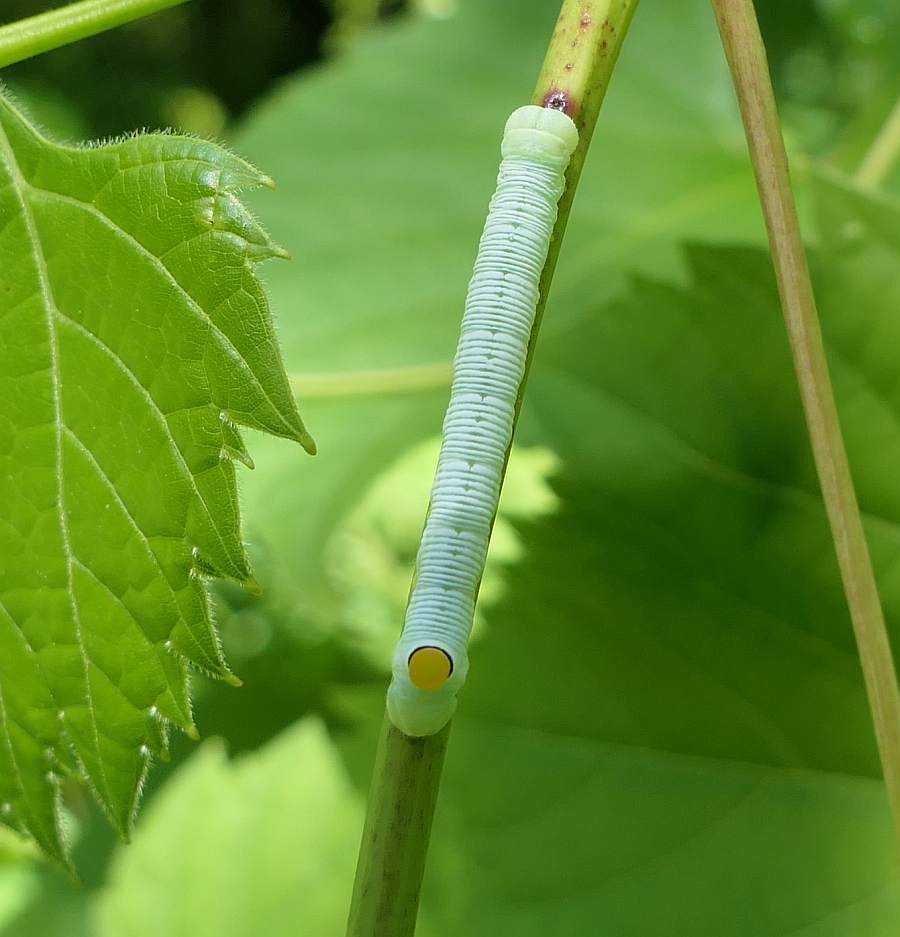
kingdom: Animalia
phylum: Arthropoda
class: Insecta
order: Lepidoptera
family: Sphingidae
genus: Sphecodina
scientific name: Sphecodina abbottii
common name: Abbott's sphinx
